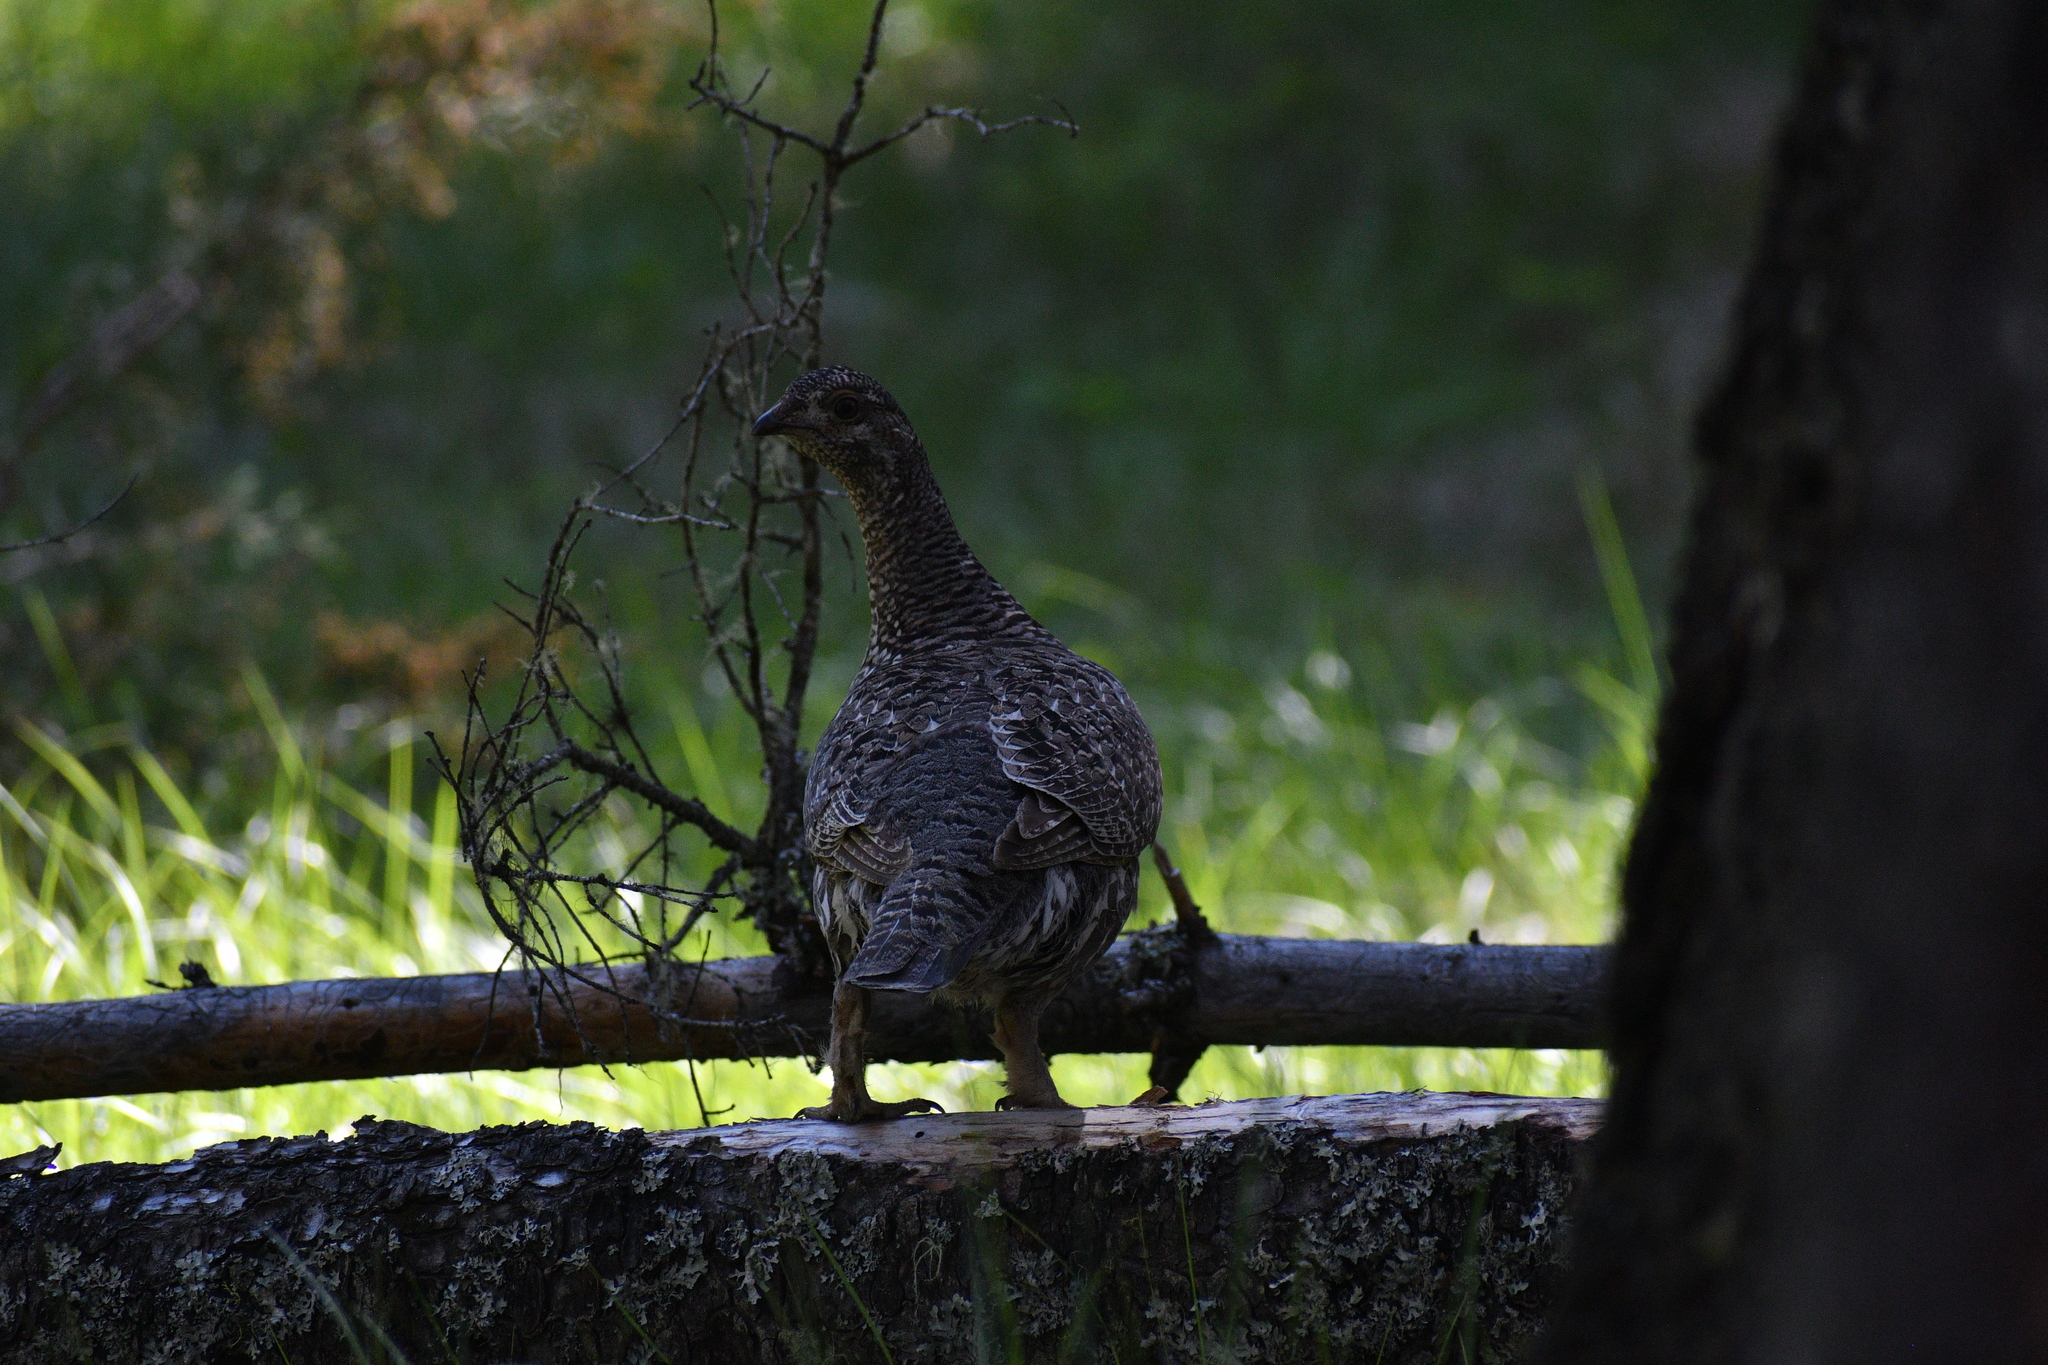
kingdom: Animalia
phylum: Chordata
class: Aves
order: Galliformes
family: Phasianidae
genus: Dendragapus
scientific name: Dendragapus obscurus
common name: Dusky grouse
